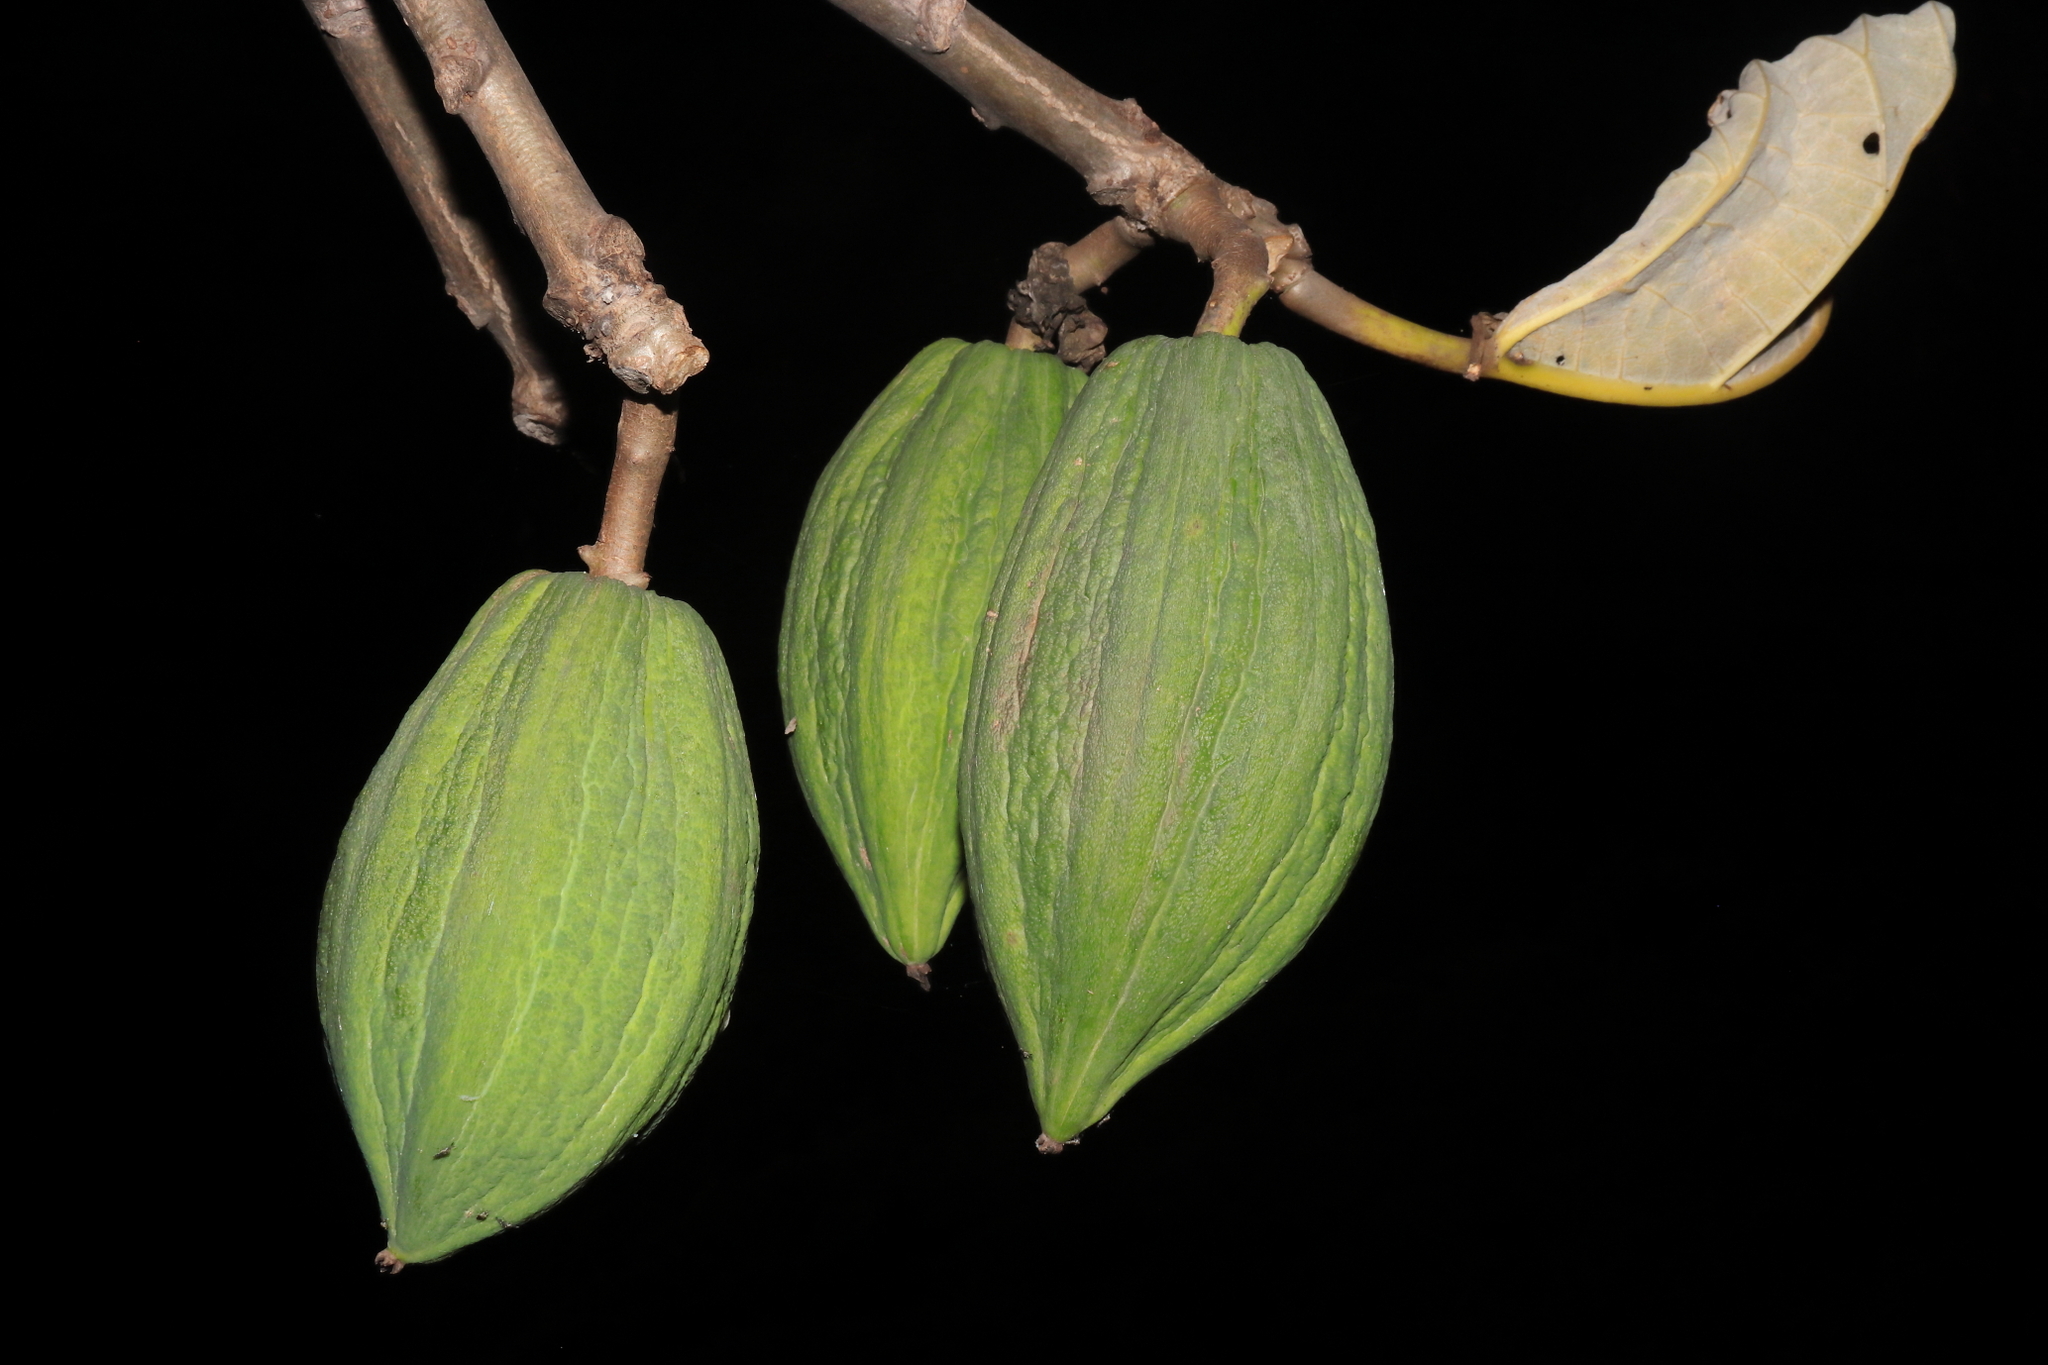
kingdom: Plantae
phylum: Tracheophyta
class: Magnoliopsida
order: Brassicales
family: Caricaceae
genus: Vasconcellea
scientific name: Vasconcellea candicans
